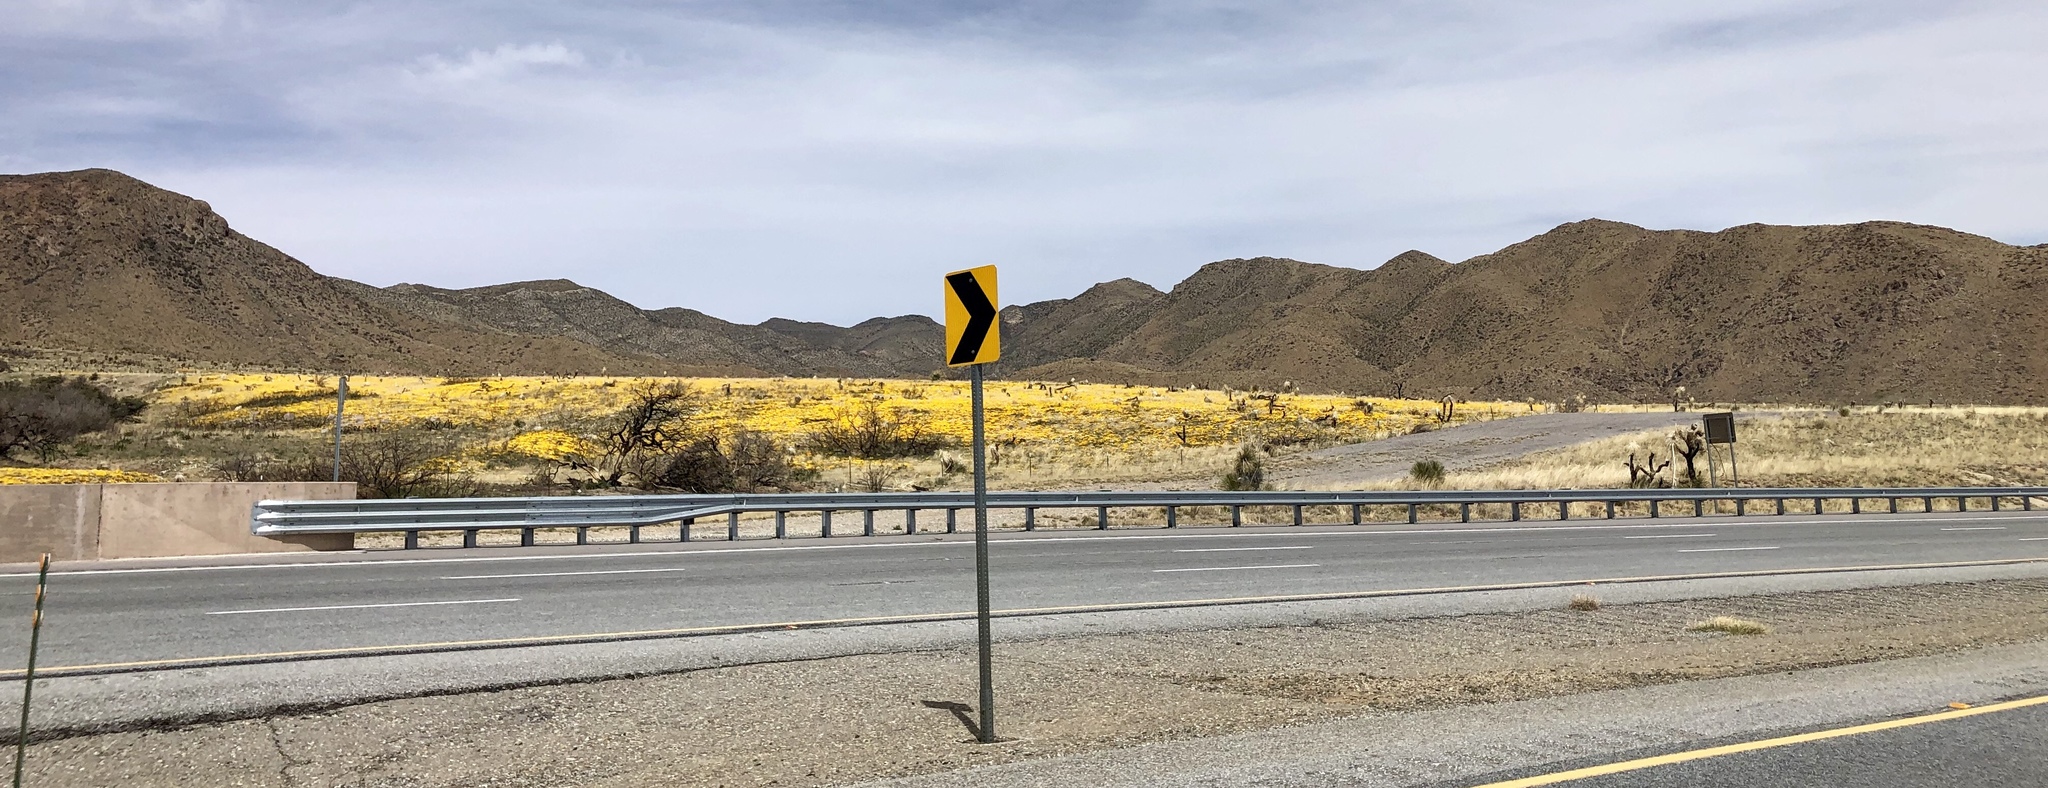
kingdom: Plantae
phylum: Tracheophyta
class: Magnoliopsida
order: Ranunculales
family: Papaveraceae
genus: Eschscholzia
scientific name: Eschscholzia californica
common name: California poppy
